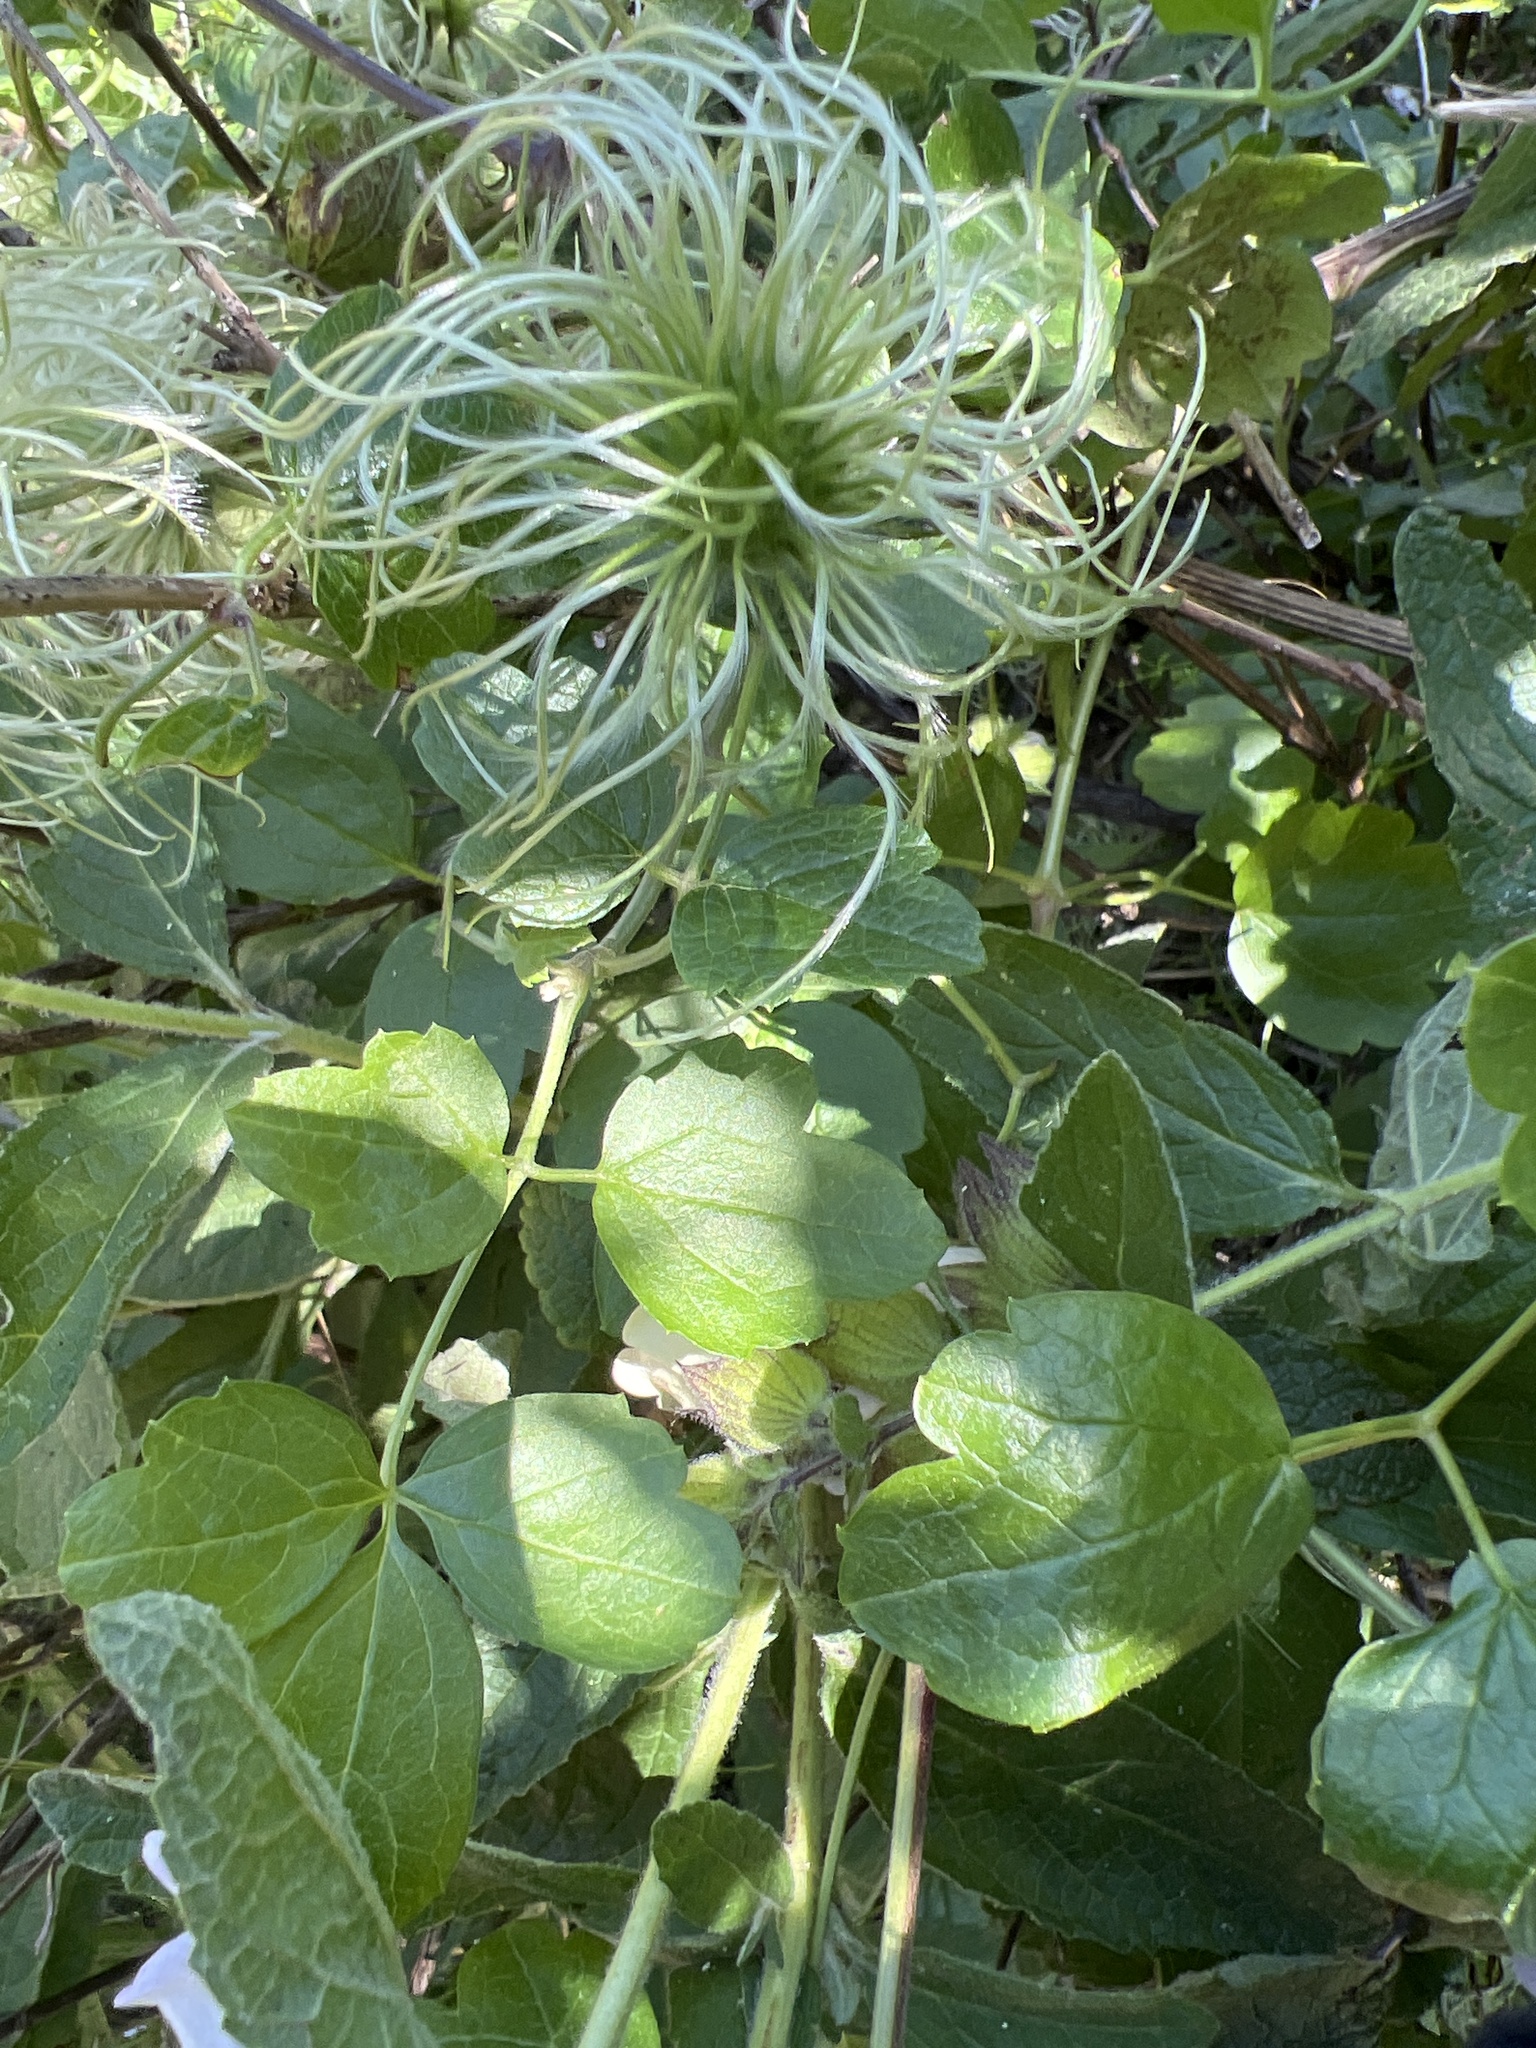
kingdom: Plantae
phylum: Tracheophyta
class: Magnoliopsida
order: Ranunculales
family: Ranunculaceae
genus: Clematis
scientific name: Clematis lasiantha
